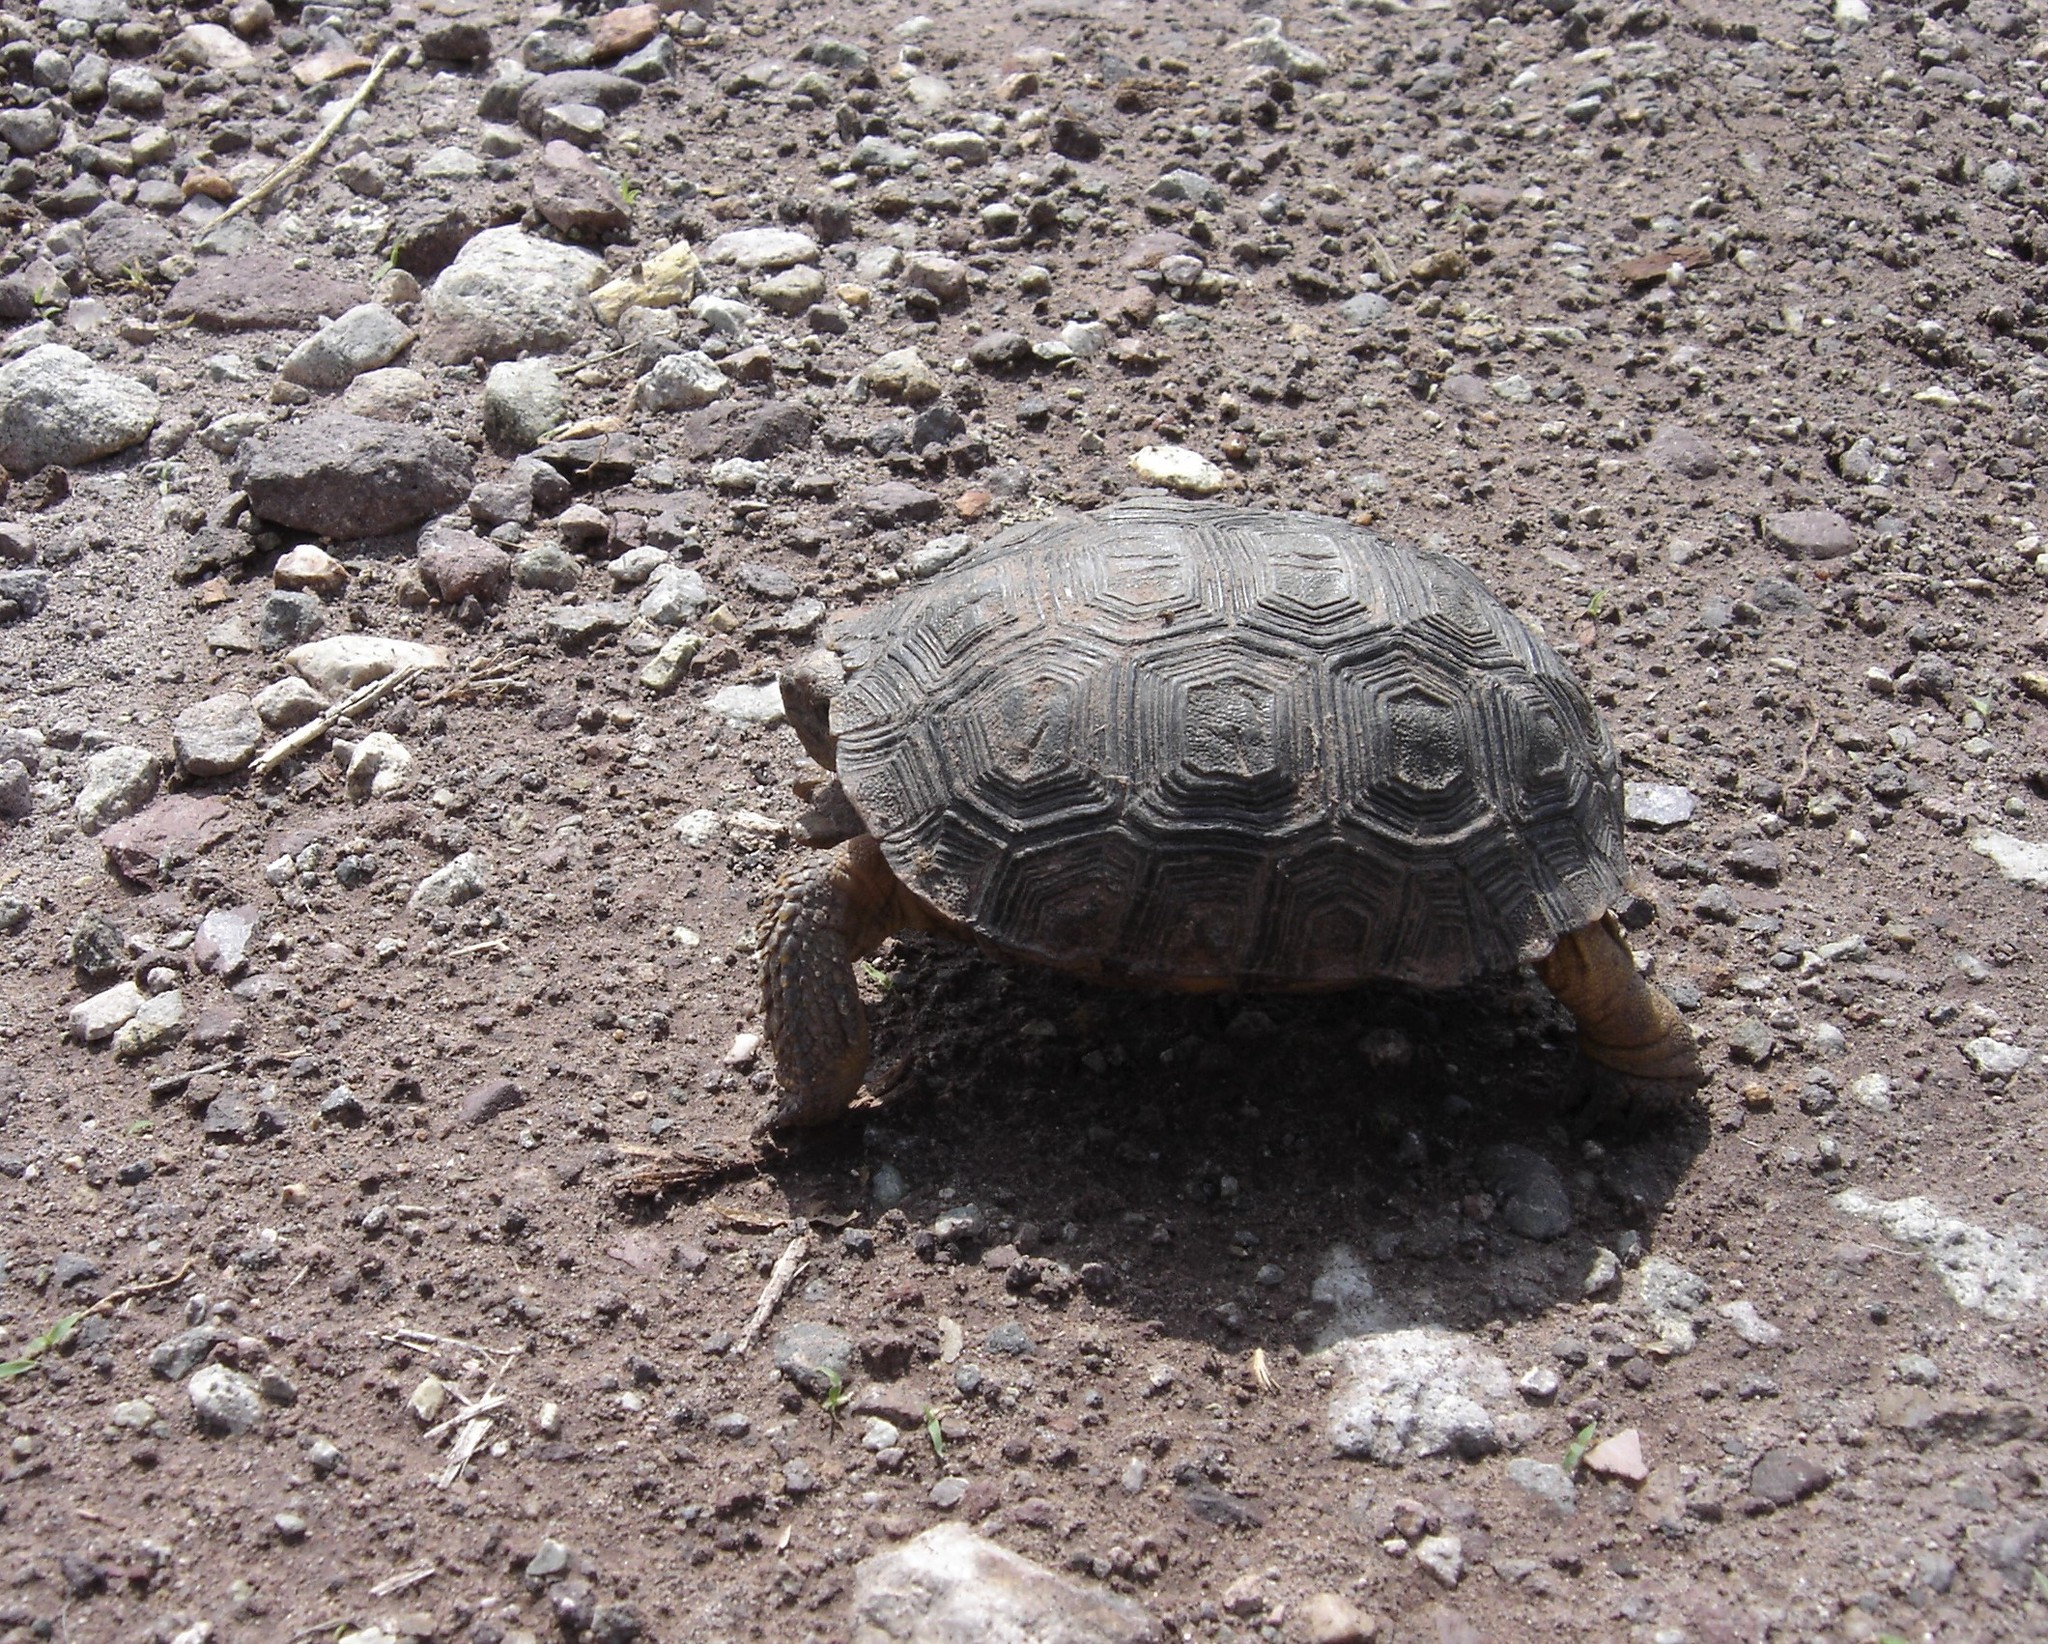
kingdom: Animalia
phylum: Chordata
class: Testudines
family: Testudinidae
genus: Gopherus
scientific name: Gopherus evgoodei
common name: Goode’s thornscrub tortoise
